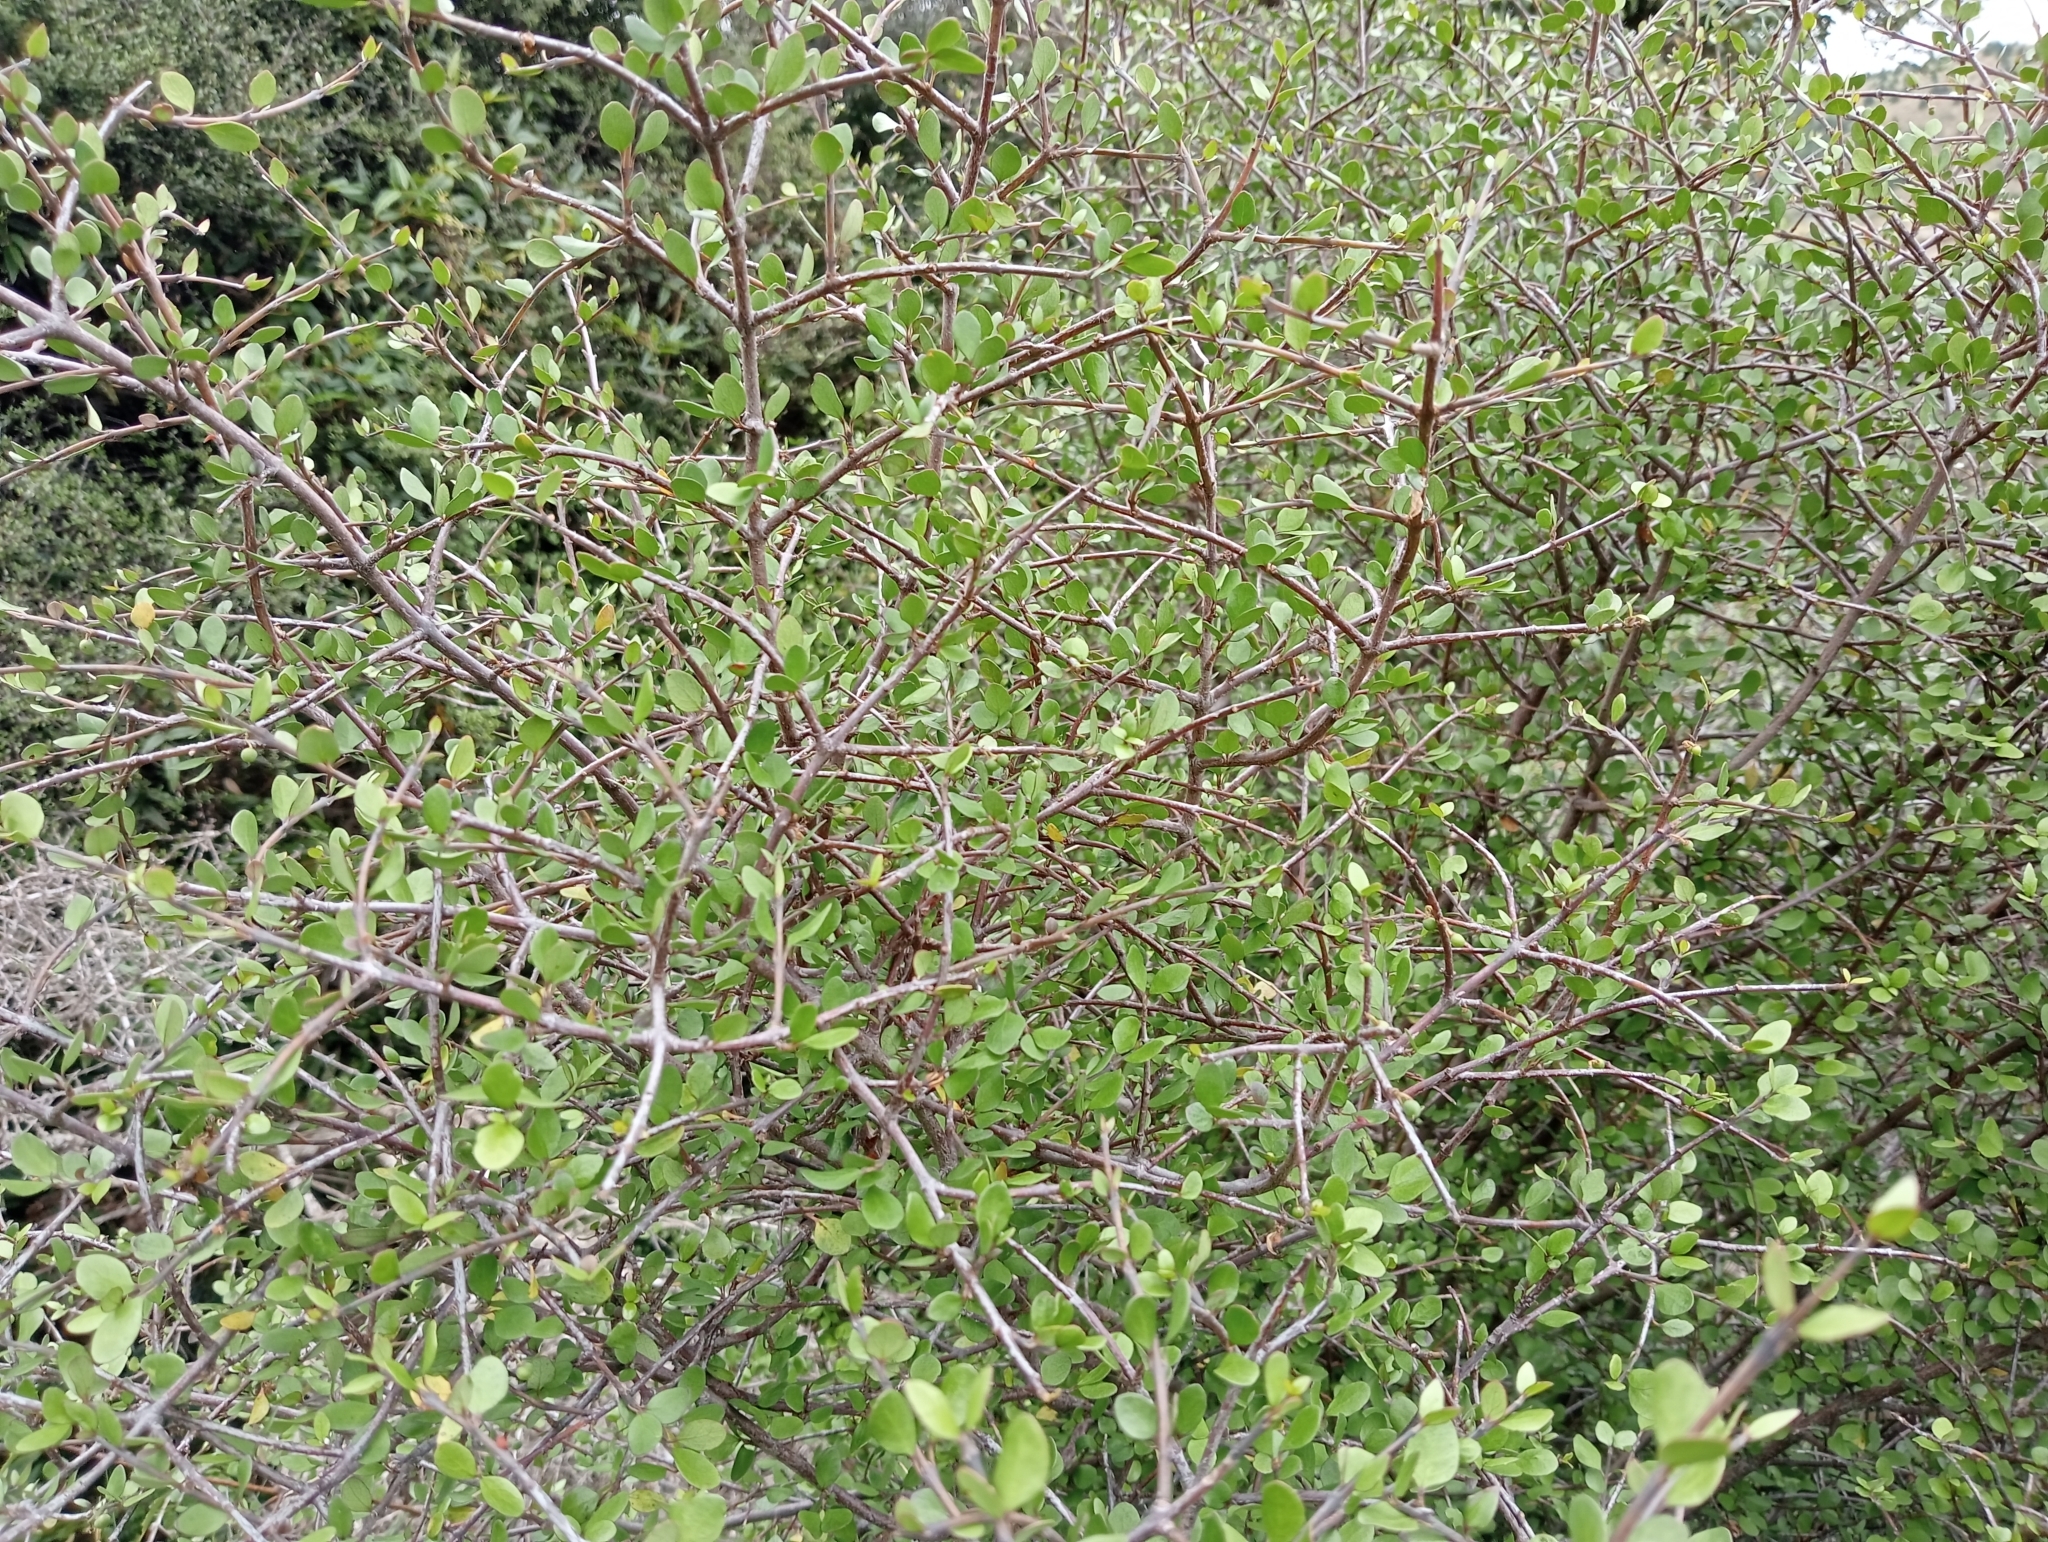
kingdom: Plantae
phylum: Tracheophyta
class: Magnoliopsida
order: Oxalidales
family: Elaeocarpaceae
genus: Aristotelia
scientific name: Aristotelia fruticosa
